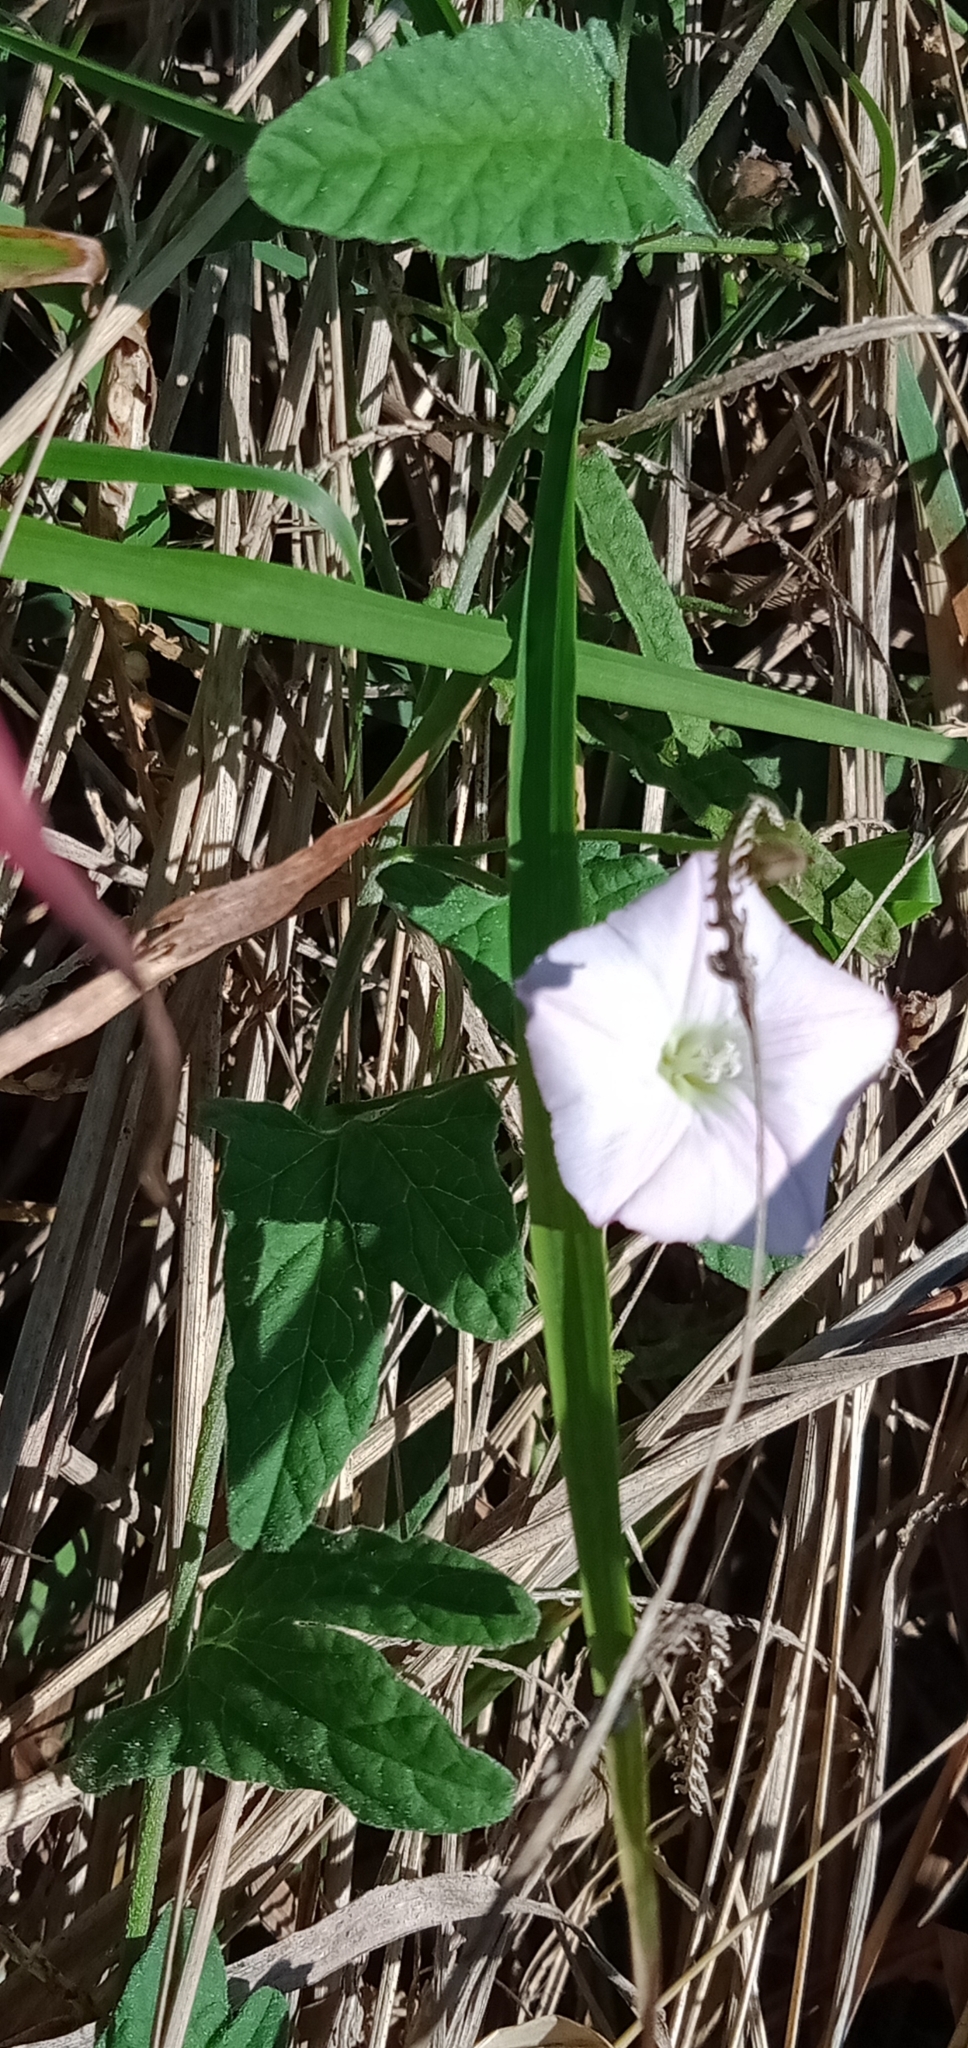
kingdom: Plantae
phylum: Tracheophyta
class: Magnoliopsida
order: Solanales
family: Convolvulaceae
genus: Ipomoea
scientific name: Ipomoea indica
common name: Blue dawnflower
